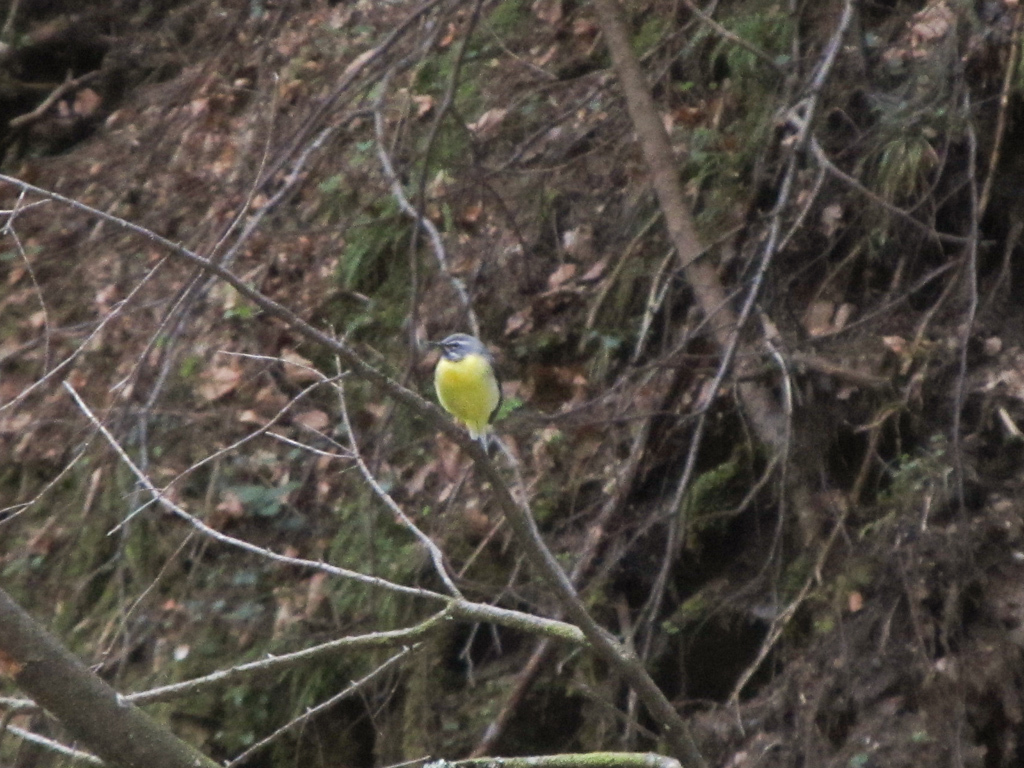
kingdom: Animalia
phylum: Chordata
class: Aves
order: Passeriformes
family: Motacillidae
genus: Motacilla
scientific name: Motacilla cinerea
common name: Grey wagtail
